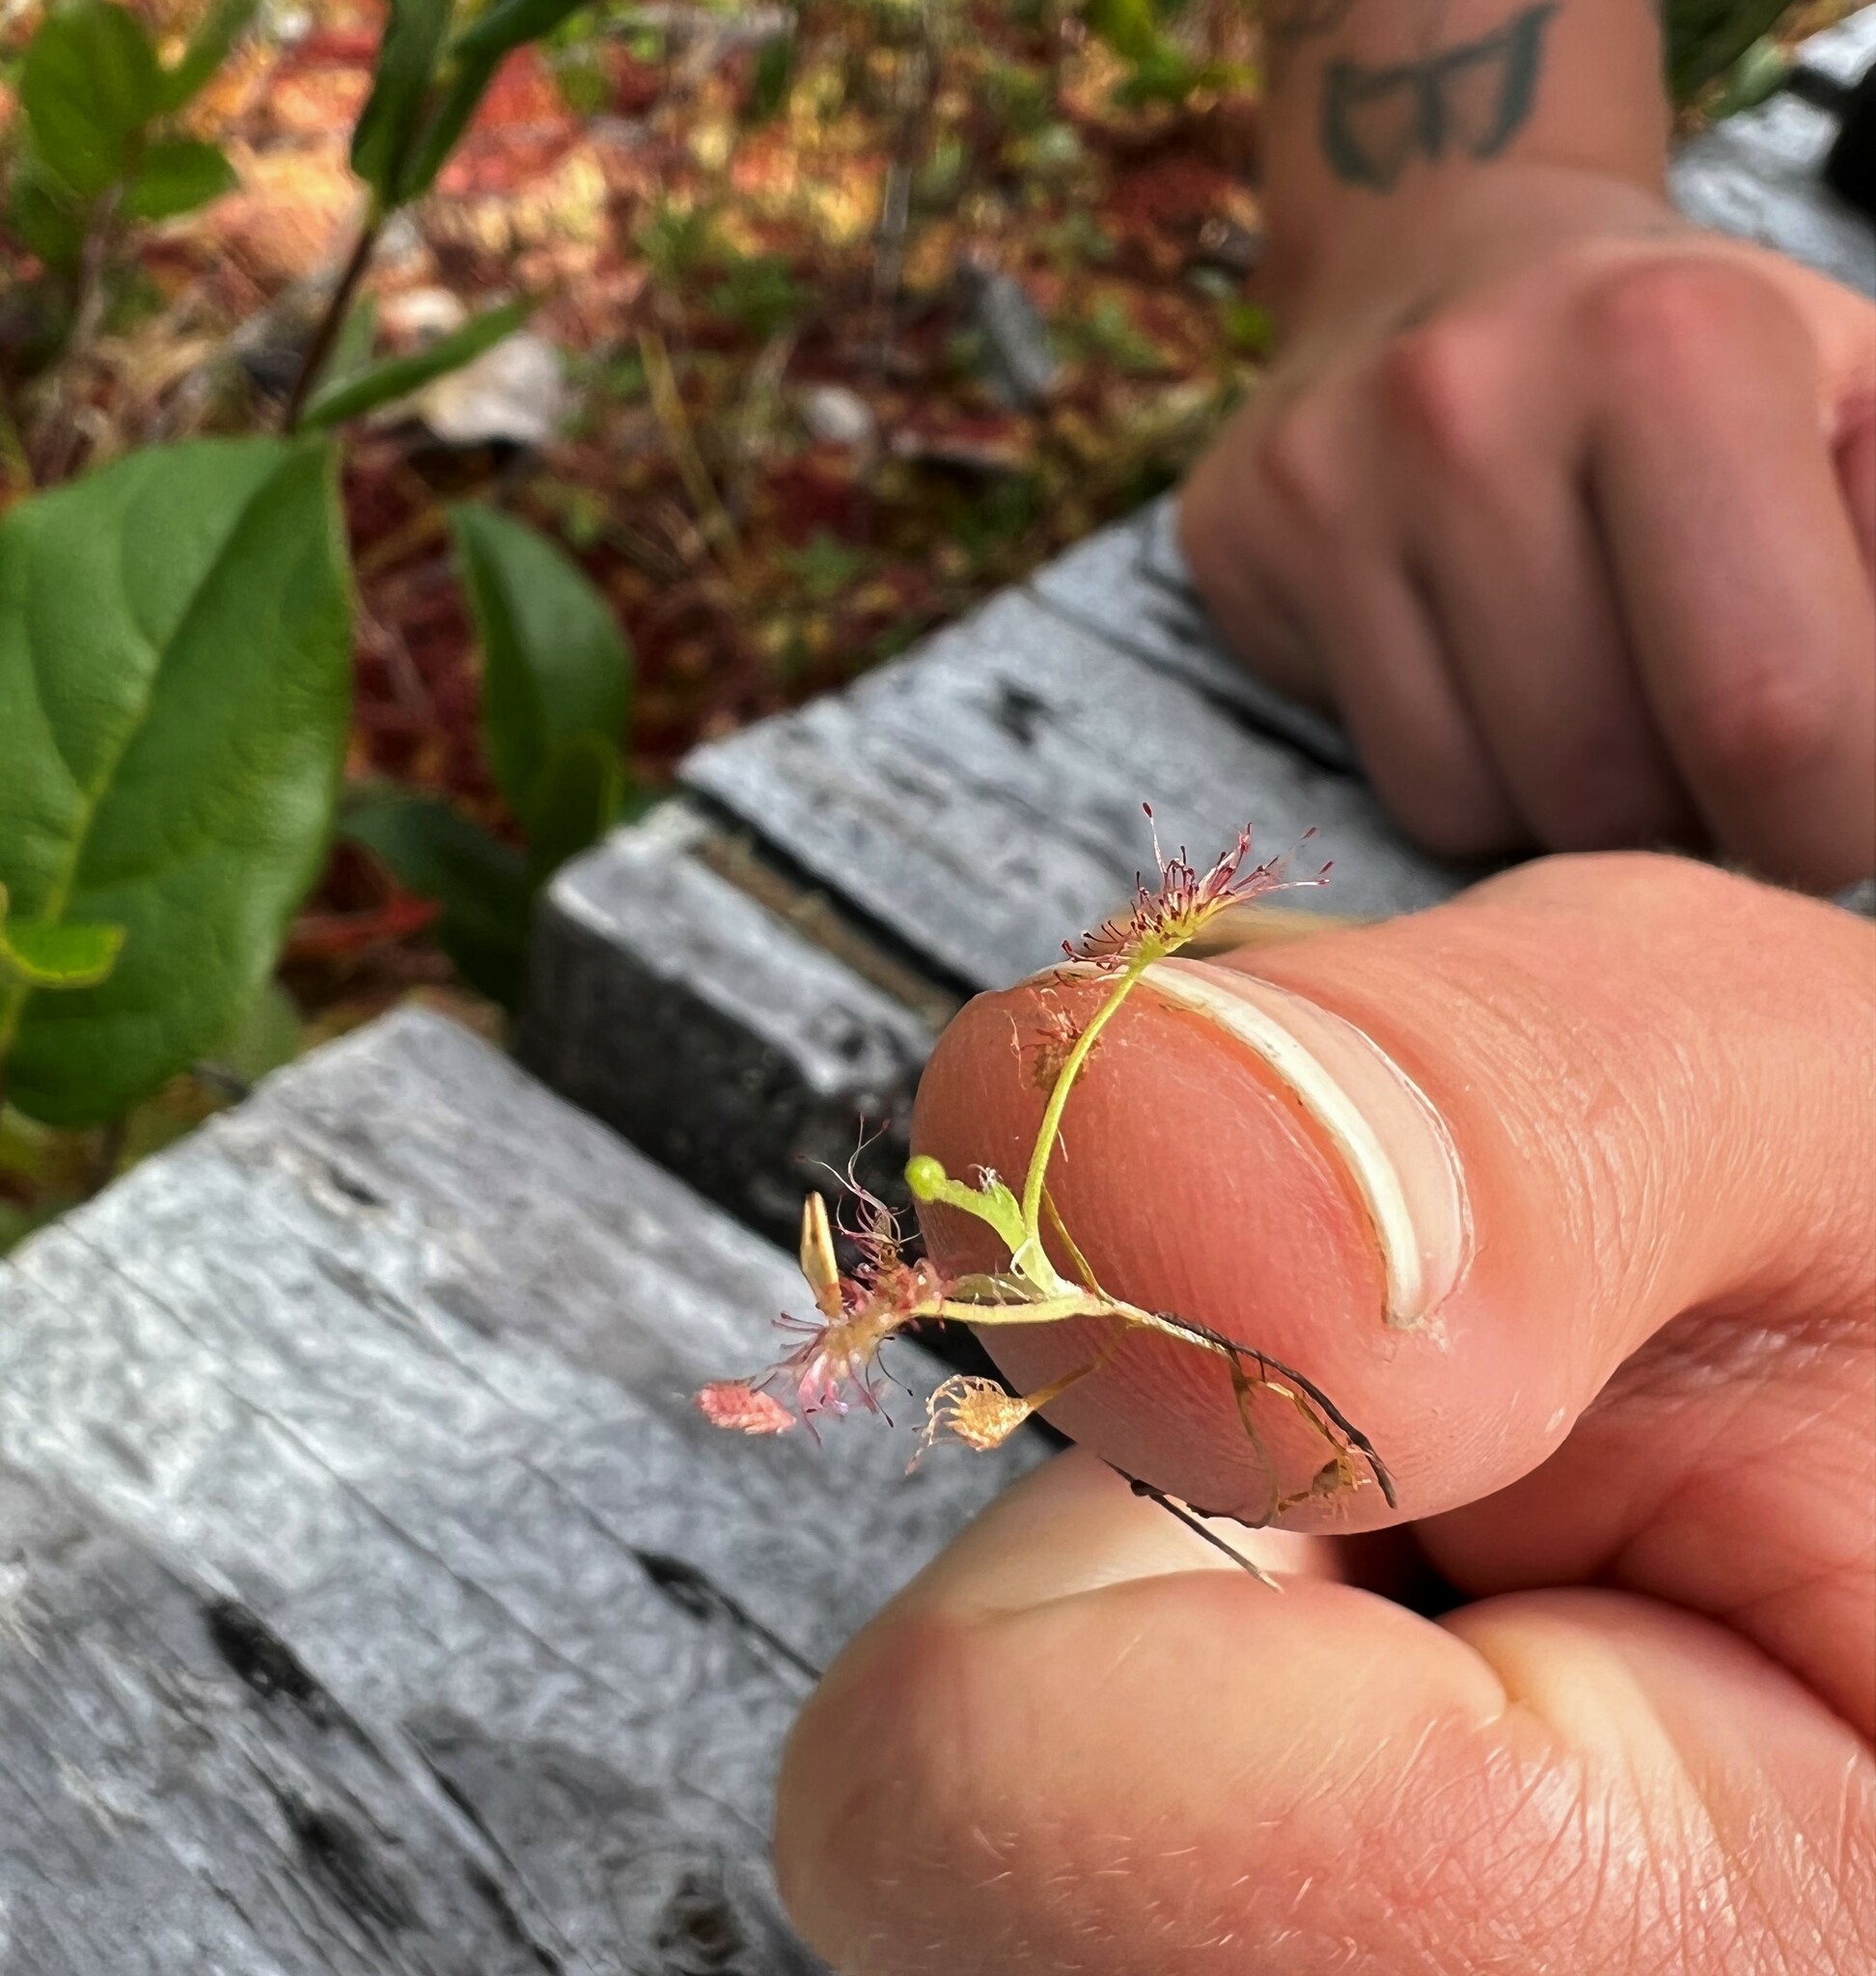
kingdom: Plantae
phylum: Tracheophyta
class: Magnoliopsida
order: Caryophyllales
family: Droseraceae
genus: Drosera
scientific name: Drosera rotundifolia
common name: Round-leaved sundew
